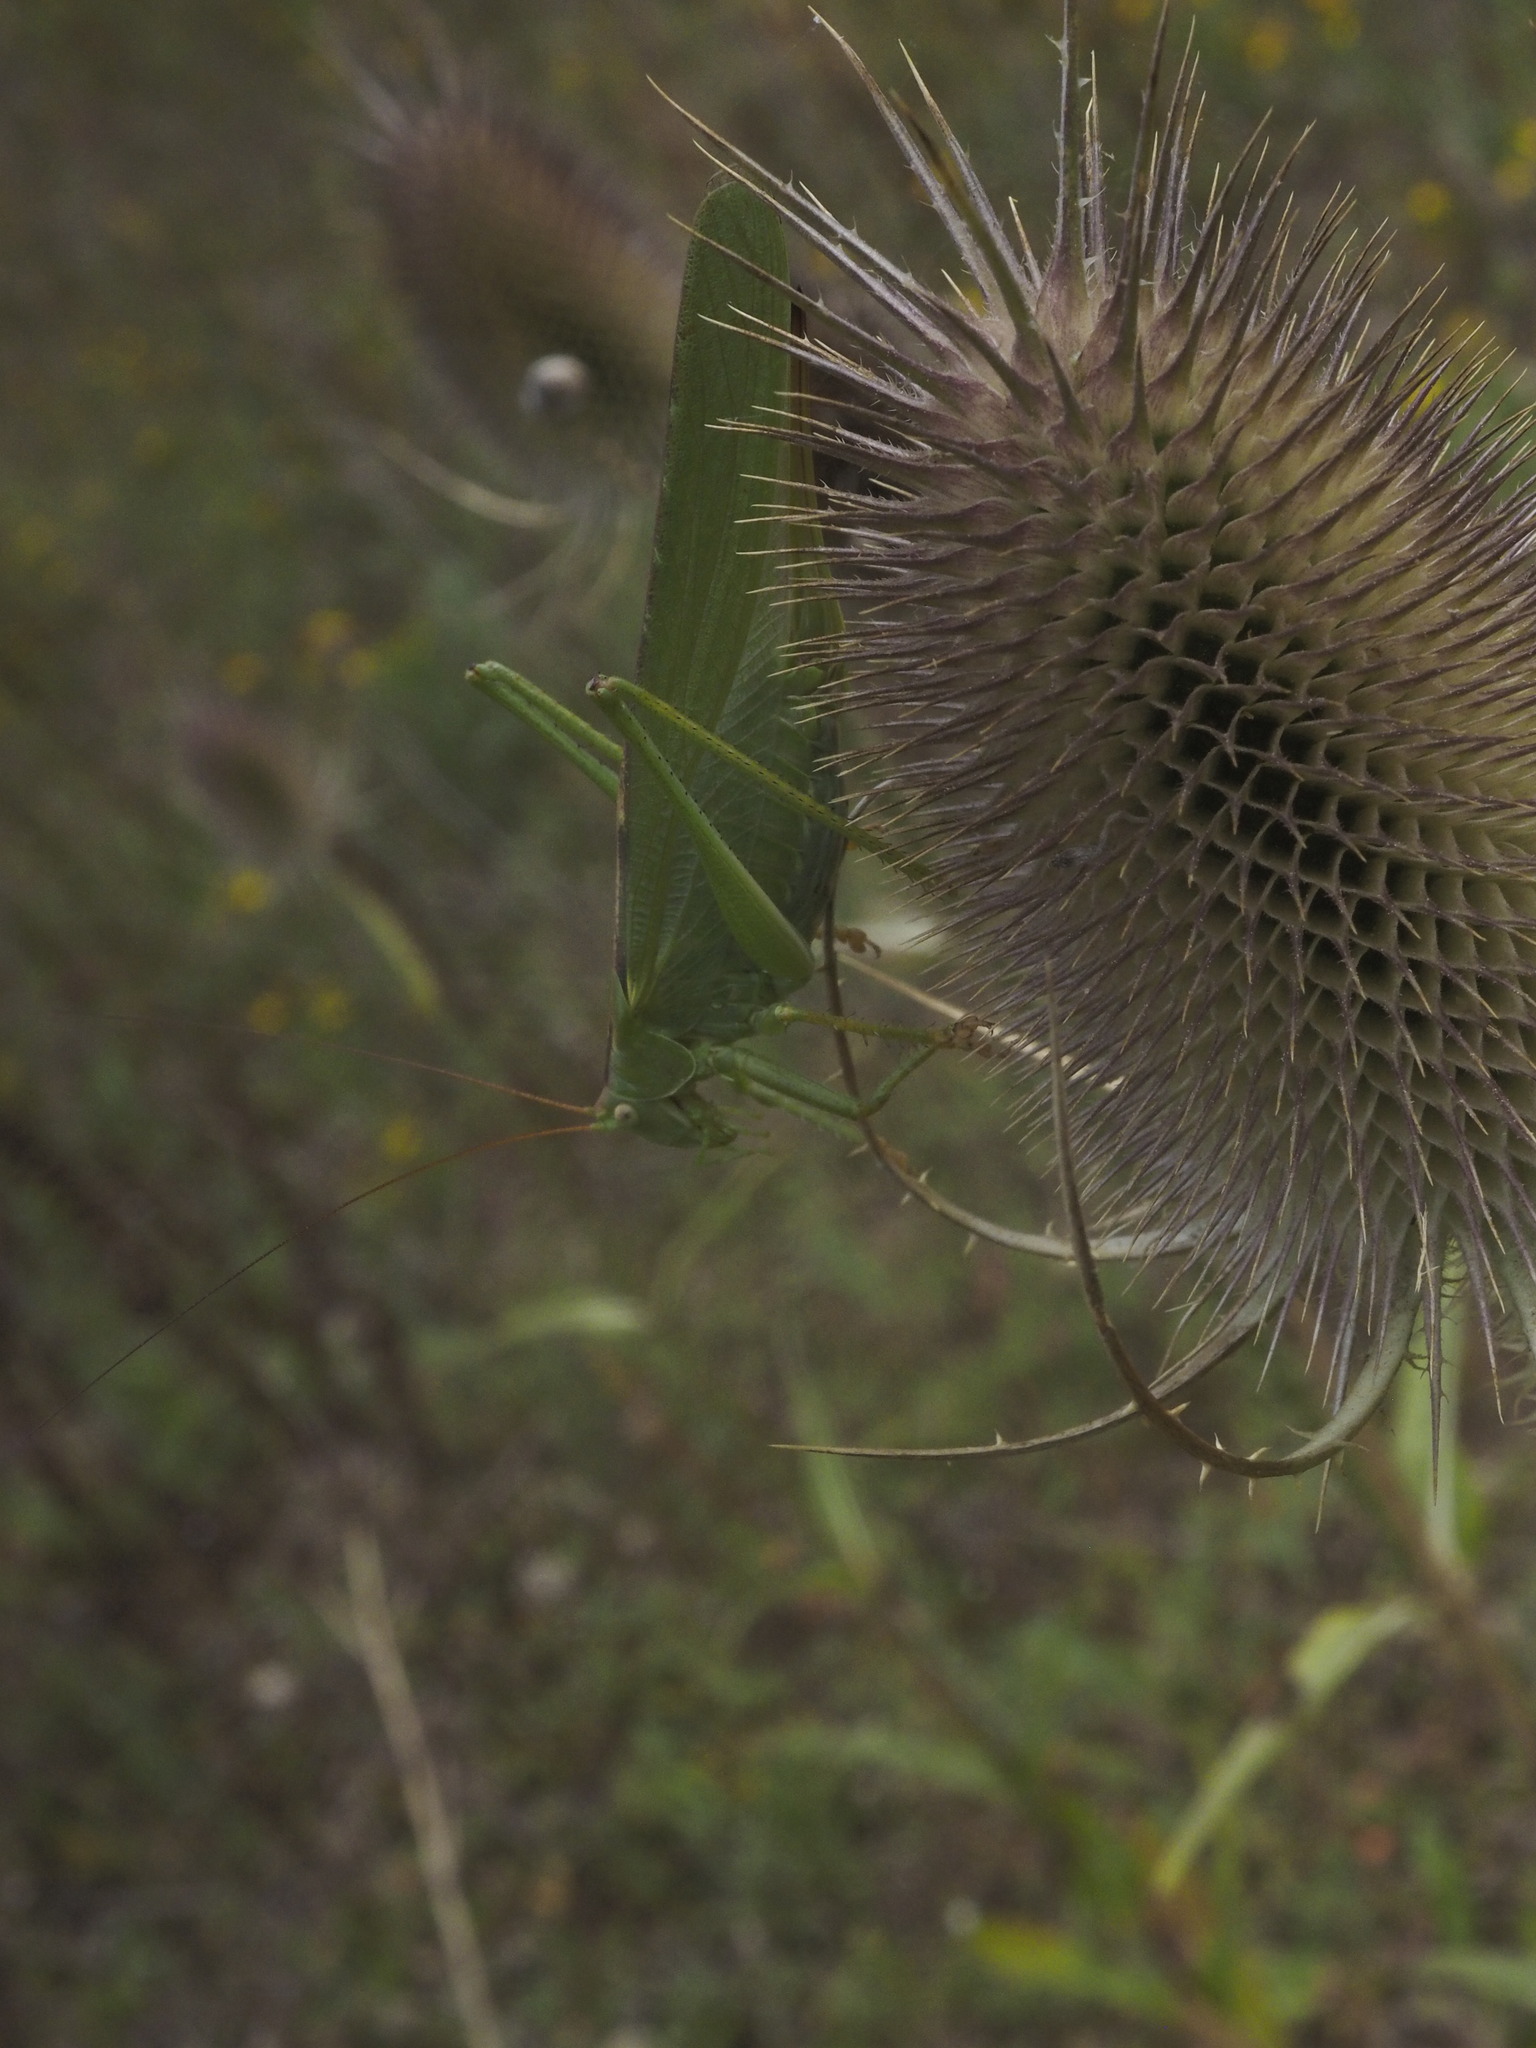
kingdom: Animalia
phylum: Arthropoda
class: Insecta
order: Orthoptera
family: Tettigoniidae
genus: Tettigonia
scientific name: Tettigonia viridissima
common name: Great green bush-cricket
